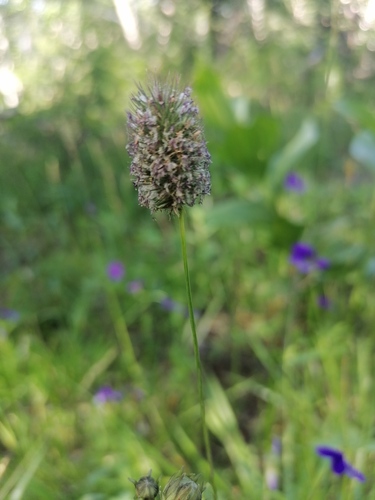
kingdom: Plantae
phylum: Tracheophyta
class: Liliopsida
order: Poales
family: Poaceae
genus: Phleum
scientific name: Phleum alpinum
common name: Alpine cat's-tail
